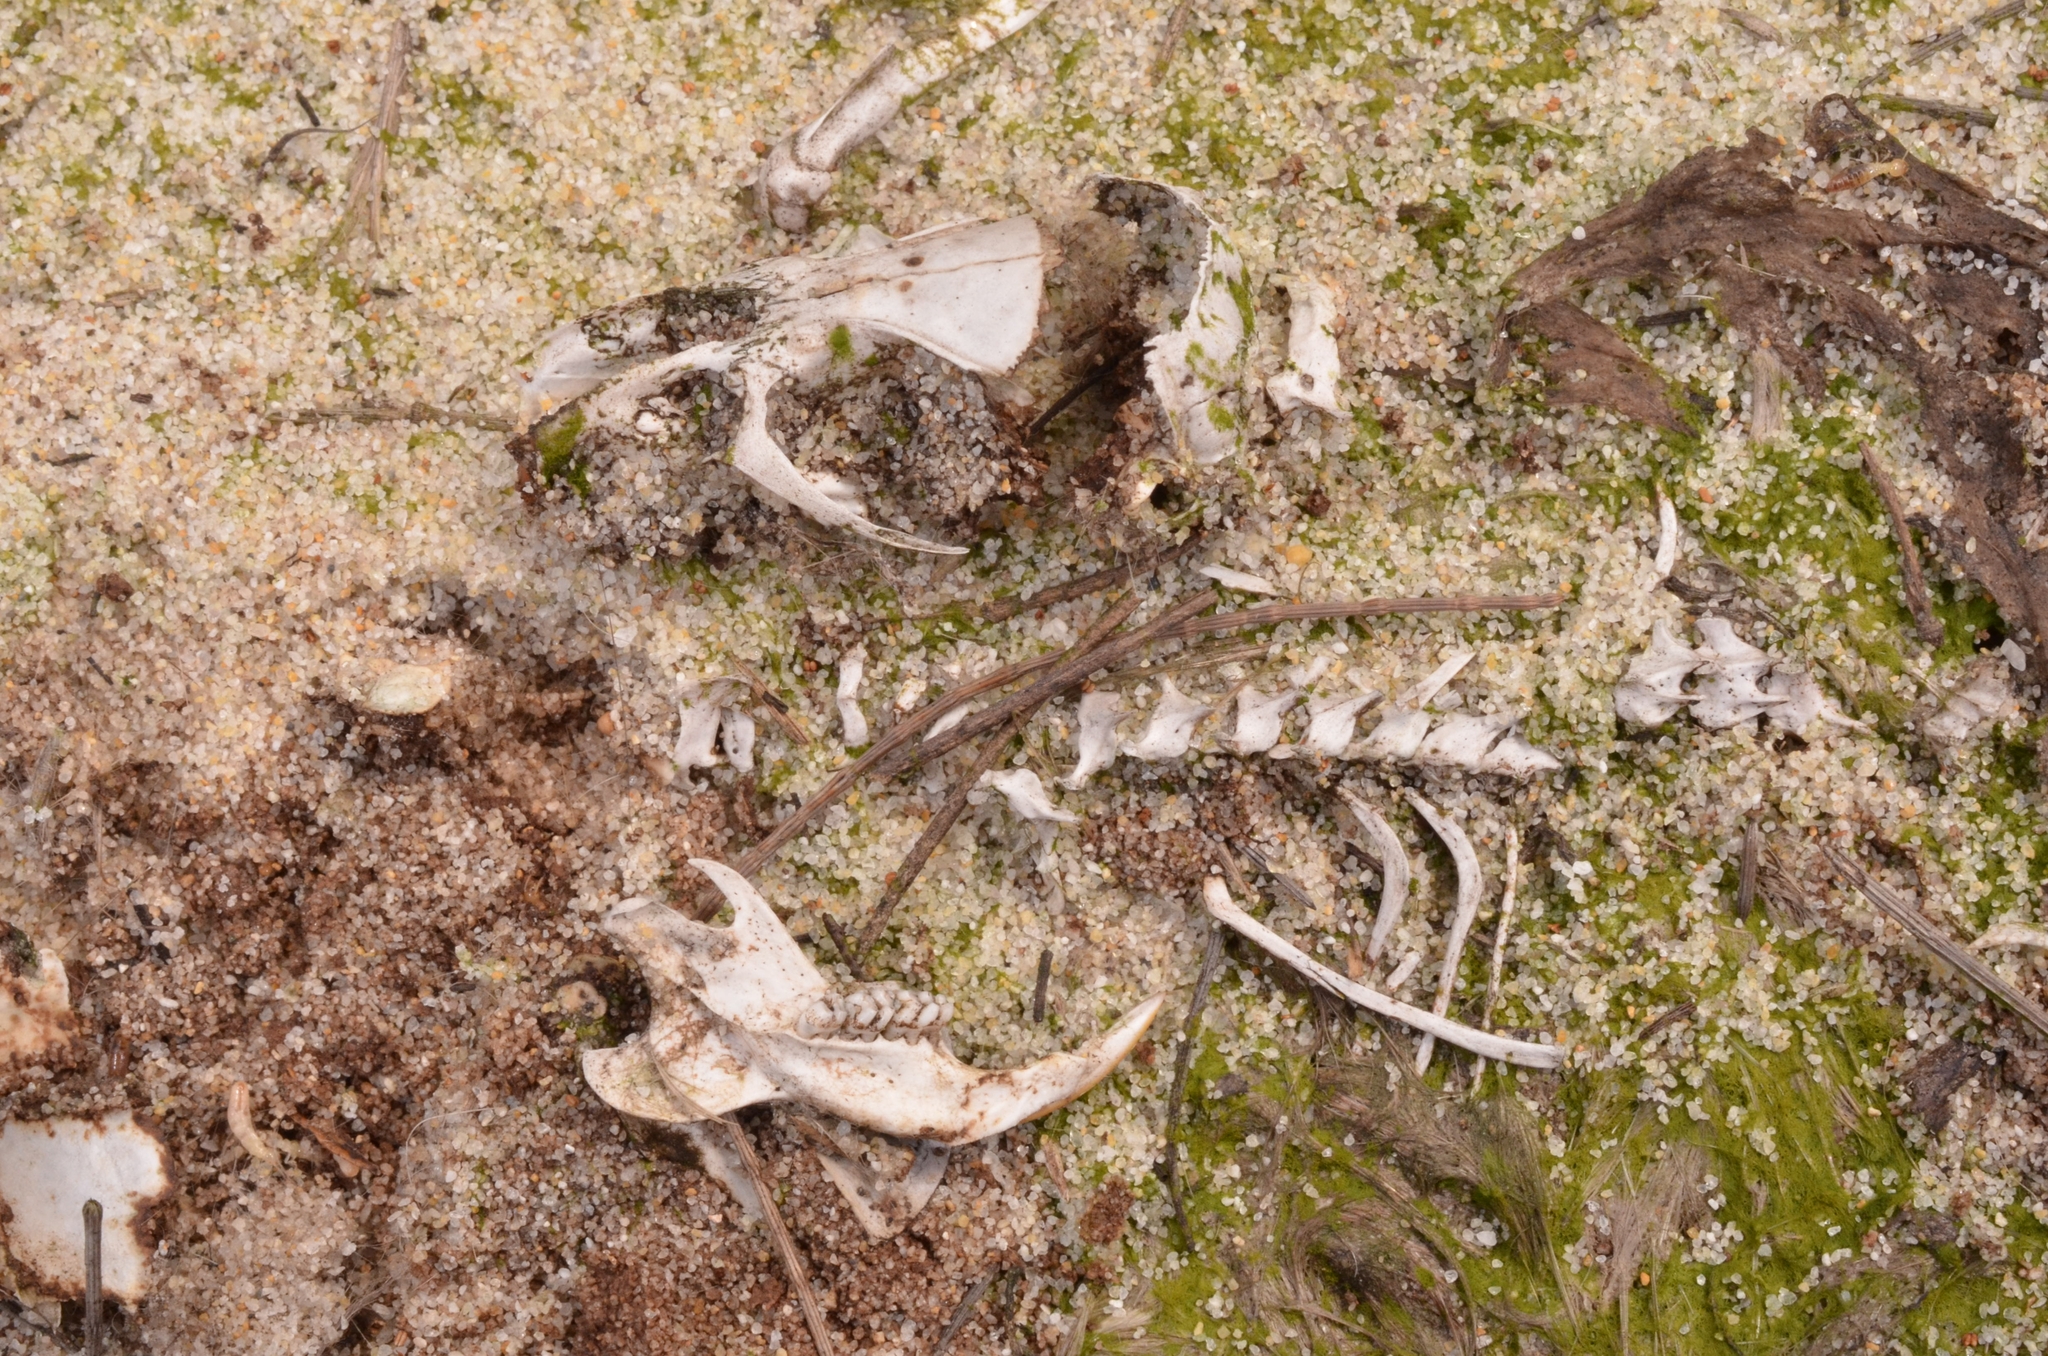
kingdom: Animalia
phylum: Chordata
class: Mammalia
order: Rodentia
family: Muridae
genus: Rattus
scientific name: Rattus tanezumi
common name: Oriental house rat
